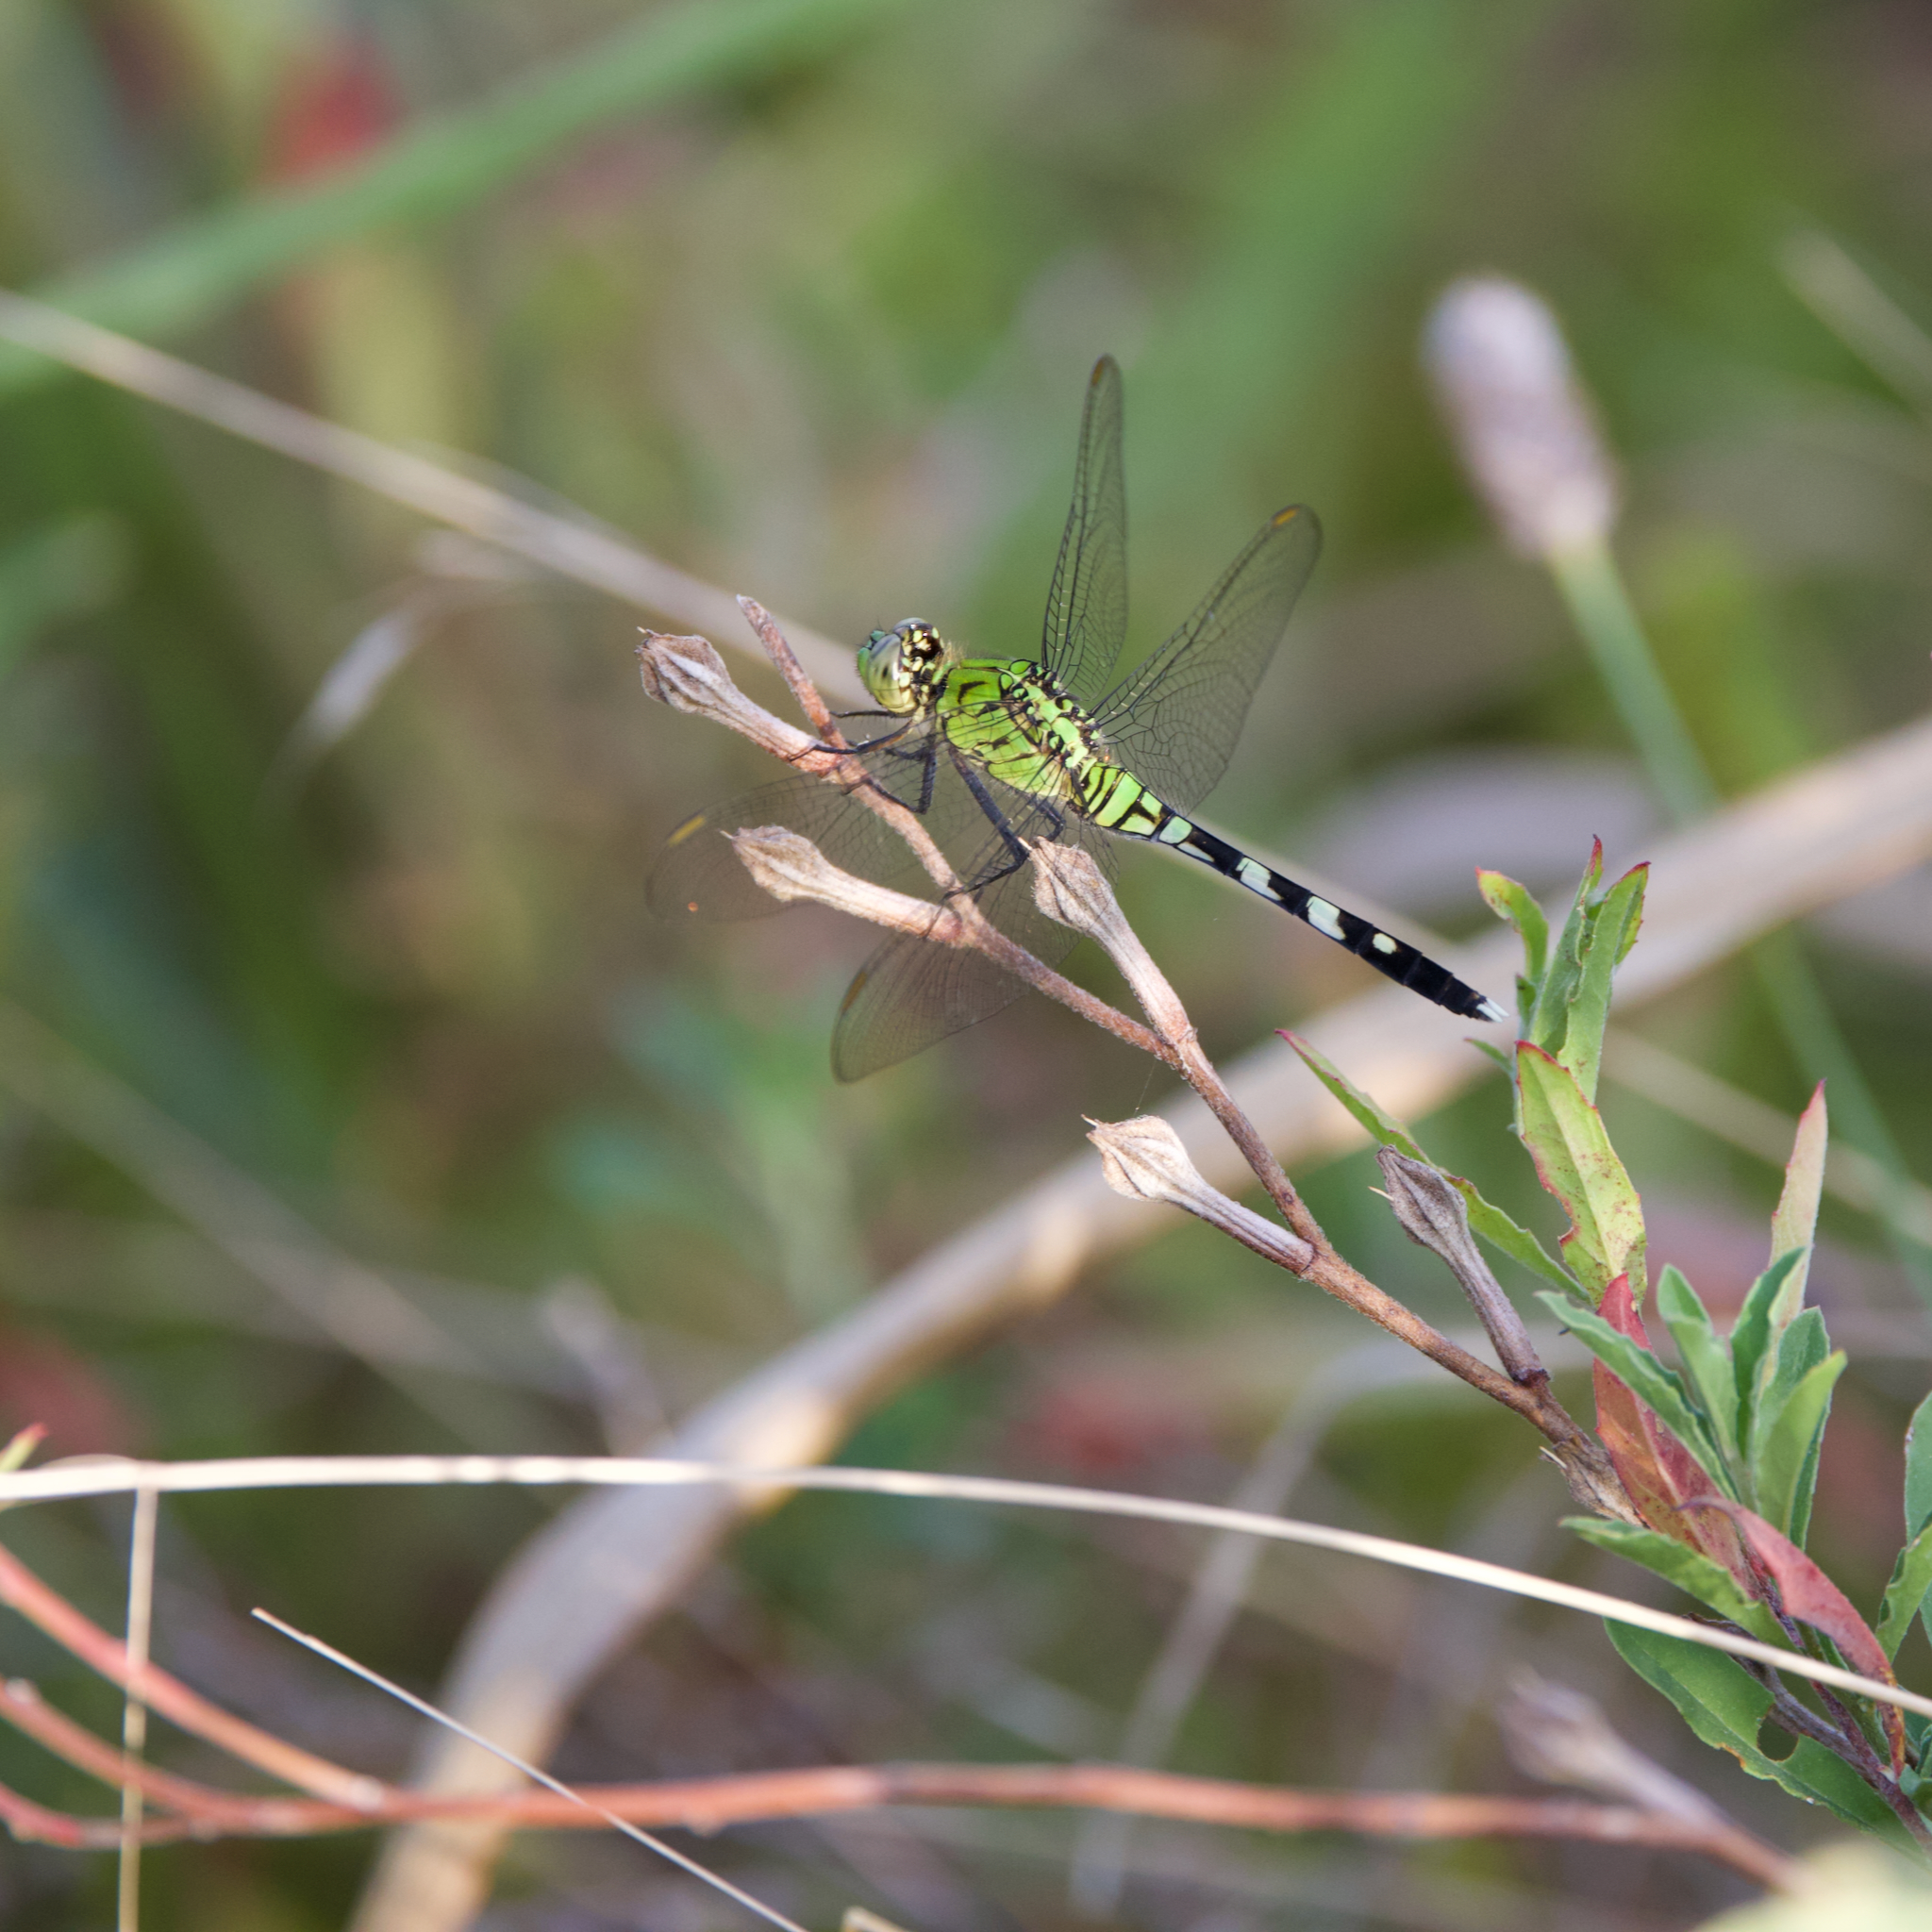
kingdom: Animalia
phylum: Arthropoda
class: Insecta
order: Odonata
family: Libellulidae
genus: Erythemis
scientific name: Erythemis simplicicollis
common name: Eastern pondhawk
